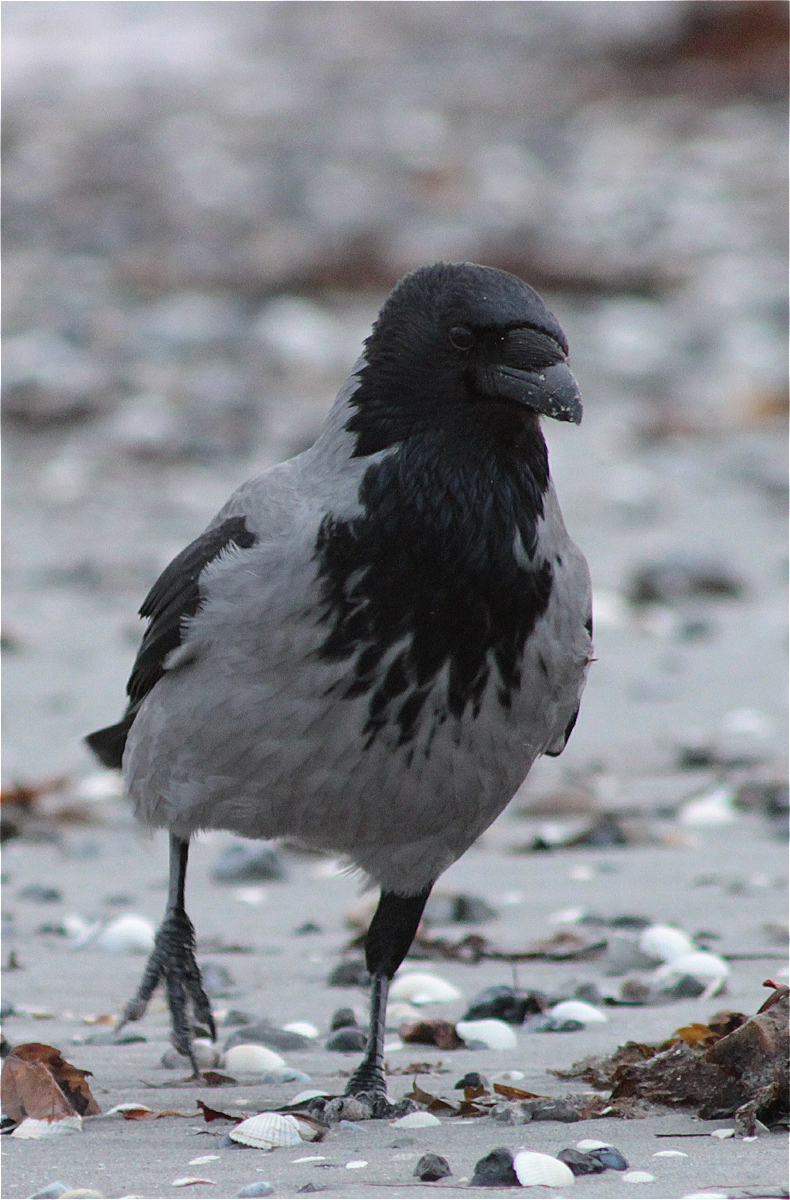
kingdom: Animalia
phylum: Chordata
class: Aves
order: Passeriformes
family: Corvidae
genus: Corvus
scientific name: Corvus cornix
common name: Hooded crow
